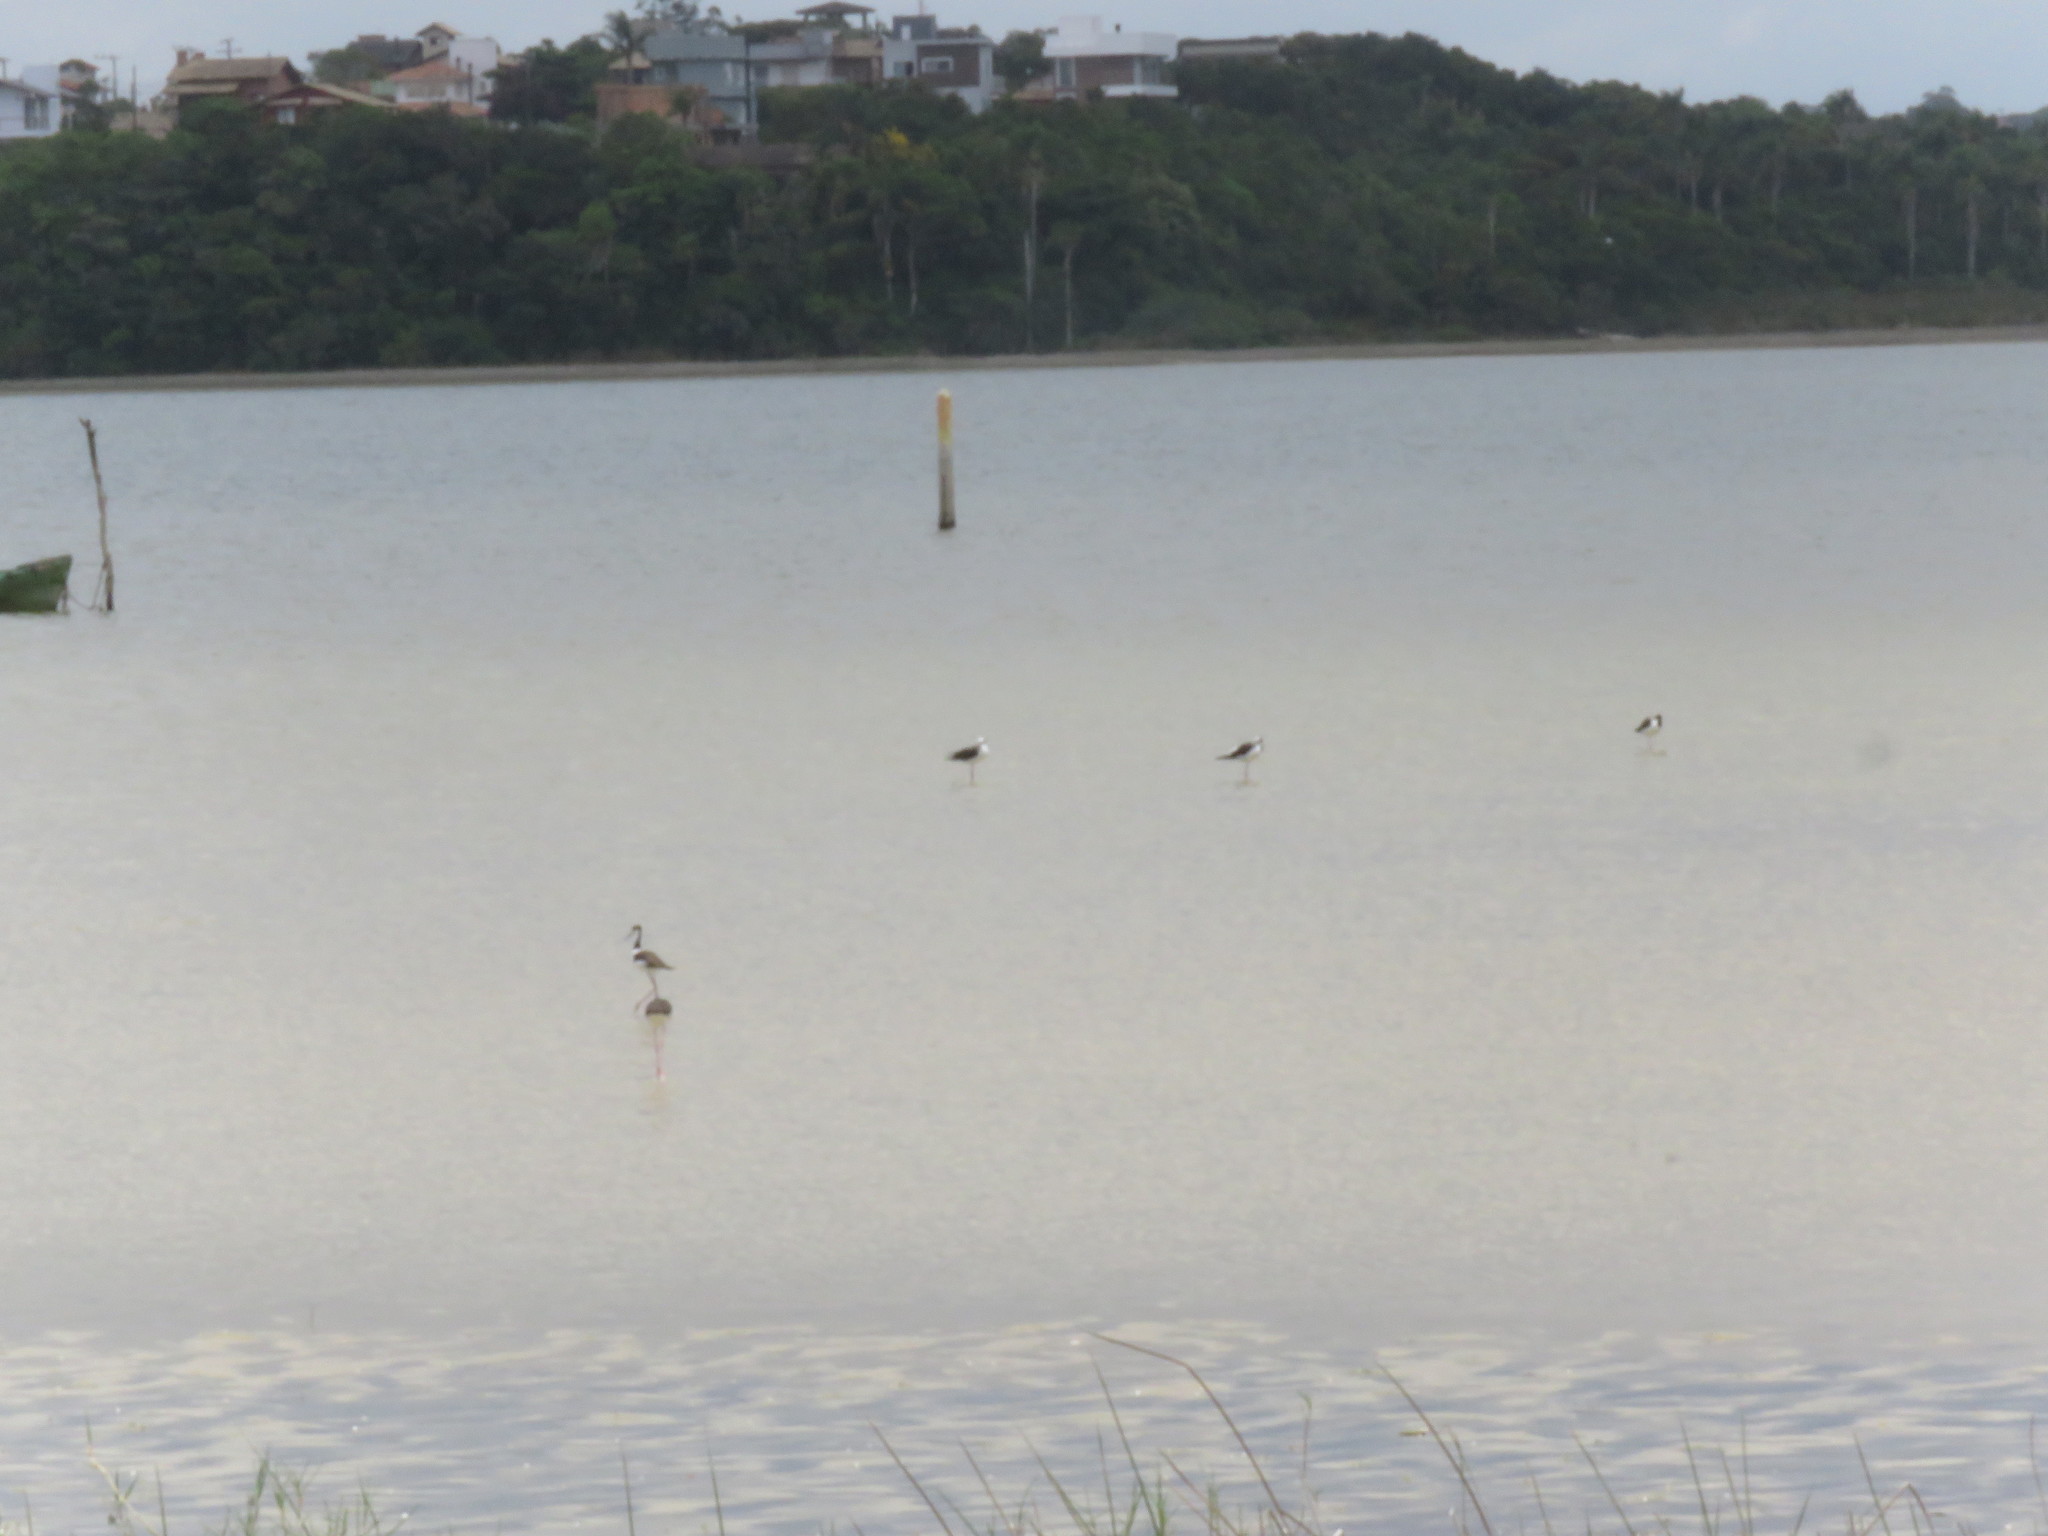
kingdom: Animalia
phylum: Chordata
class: Aves
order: Charadriiformes
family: Recurvirostridae
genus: Himantopus
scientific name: Himantopus mexicanus
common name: Black-necked stilt
